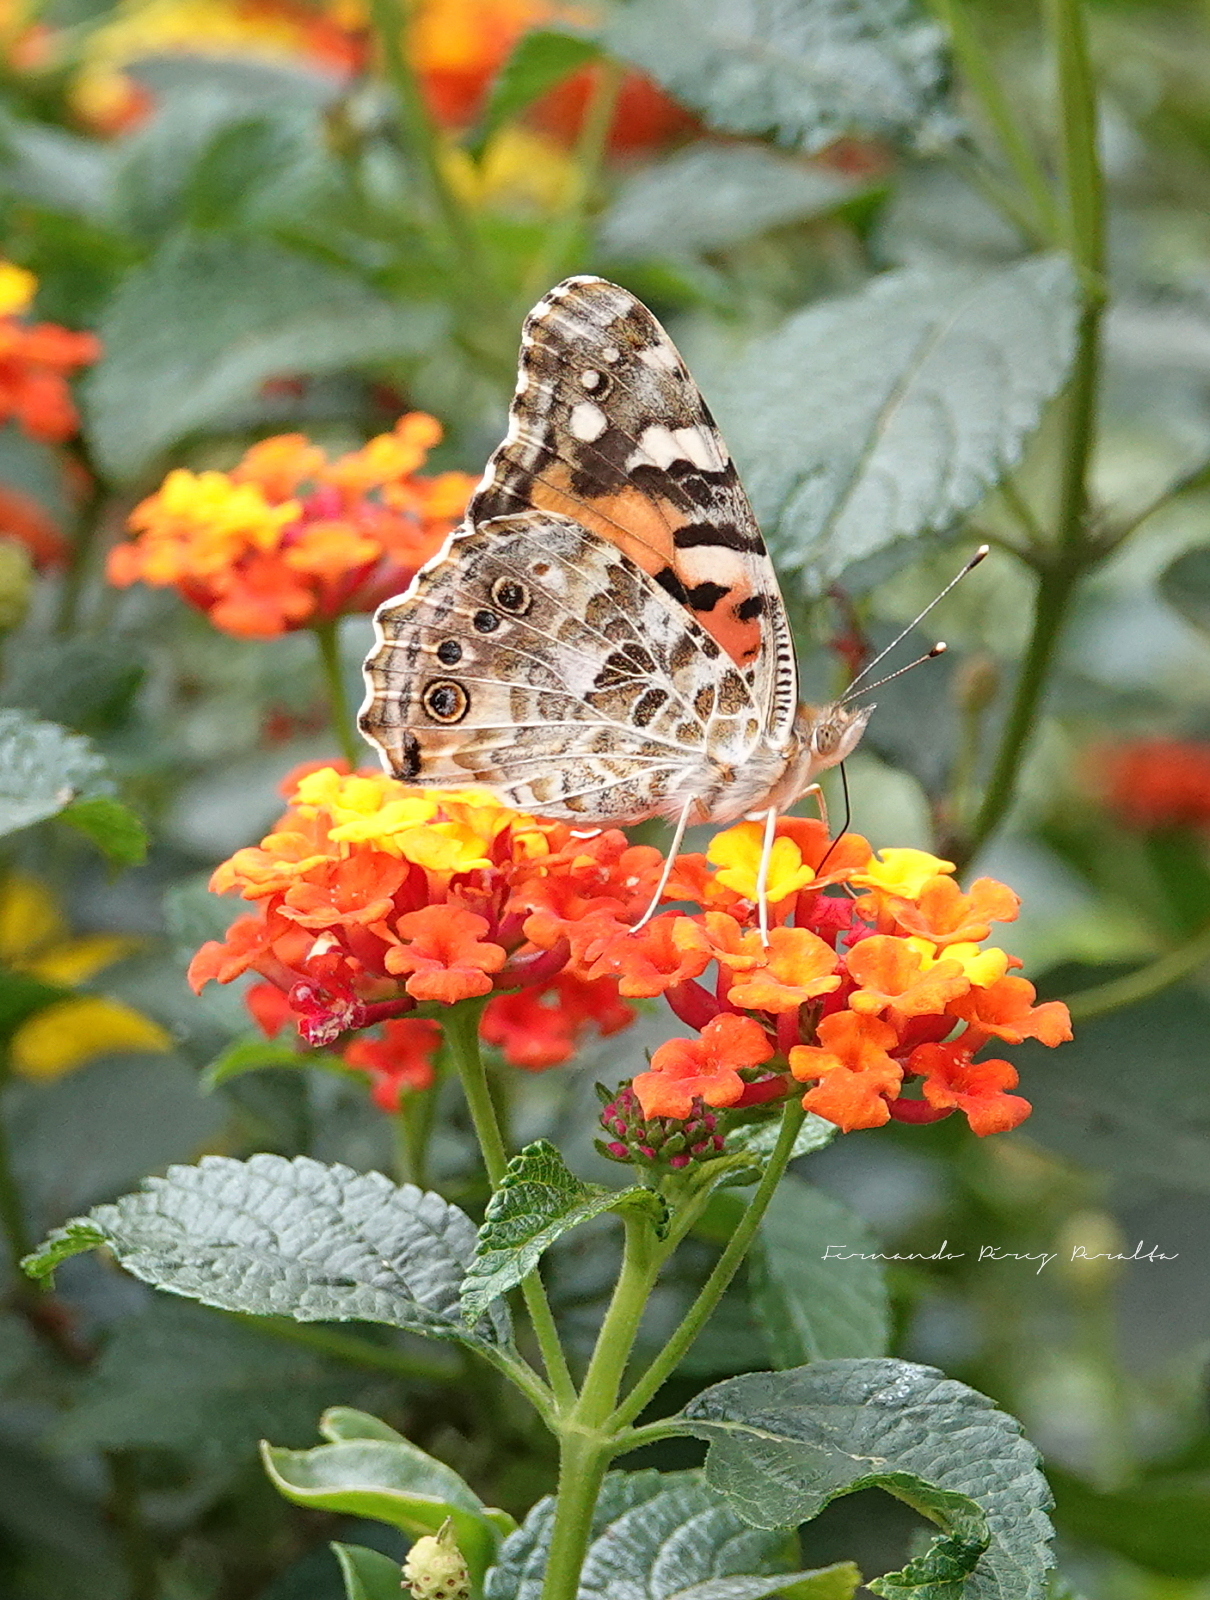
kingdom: Animalia
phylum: Arthropoda
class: Insecta
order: Lepidoptera
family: Nymphalidae
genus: Vanessa
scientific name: Vanessa cardui
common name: Painted lady
